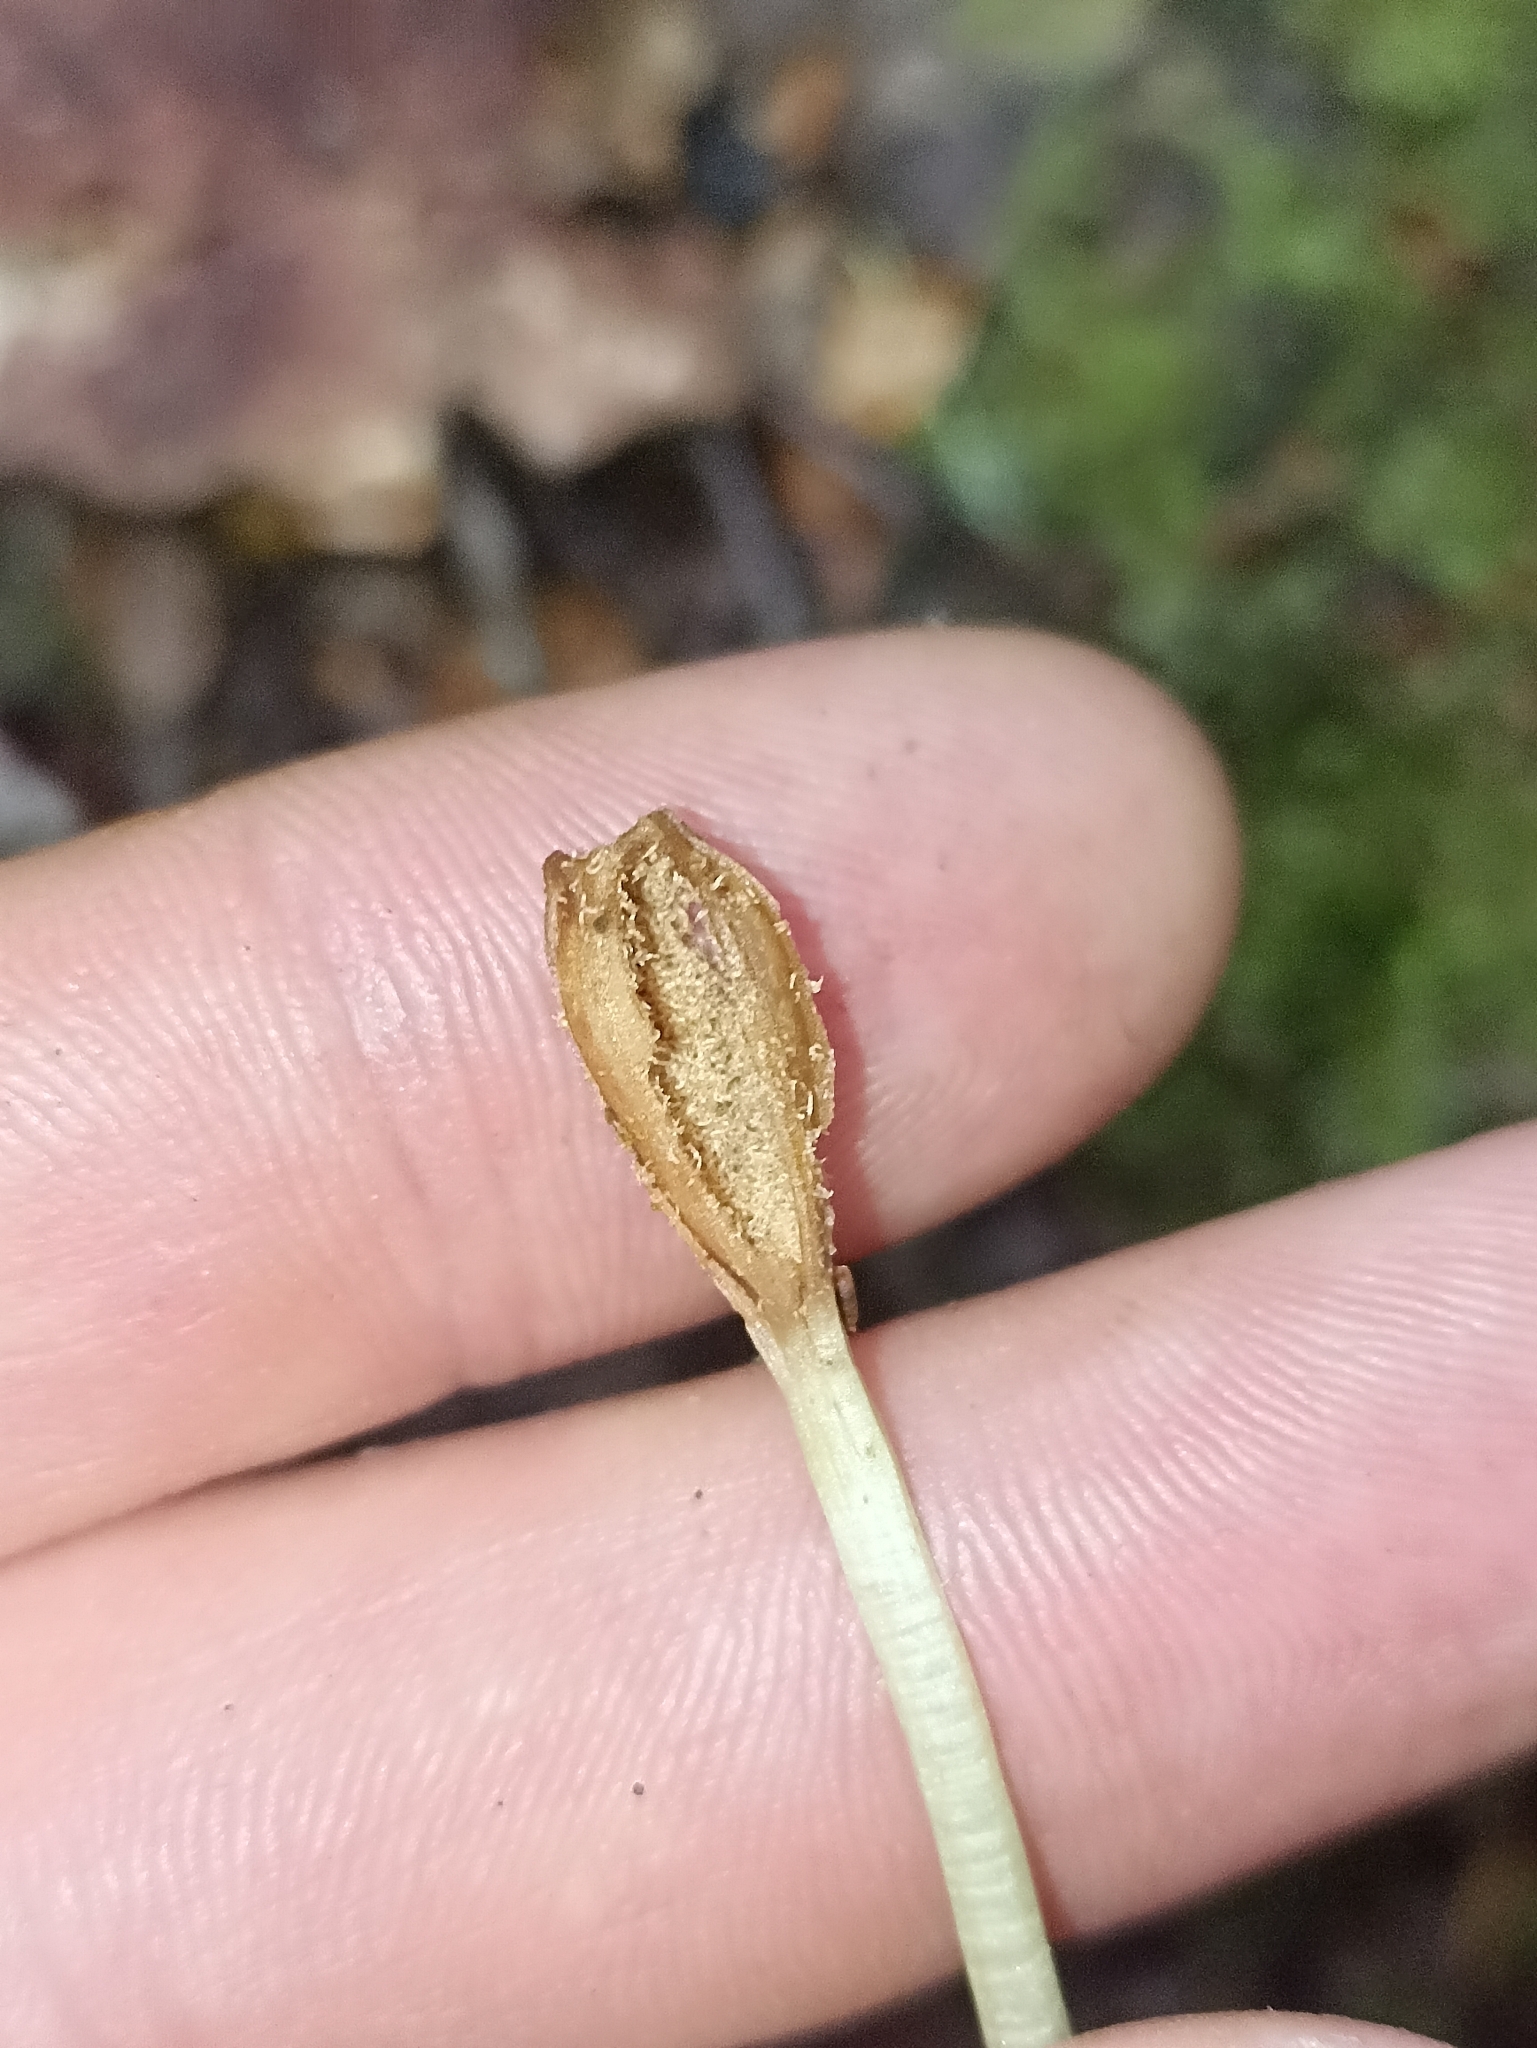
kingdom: Plantae
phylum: Tracheophyta
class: Liliopsida
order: Asparagales
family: Orchidaceae
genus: Chiloglottis
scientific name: Chiloglottis cornuta
